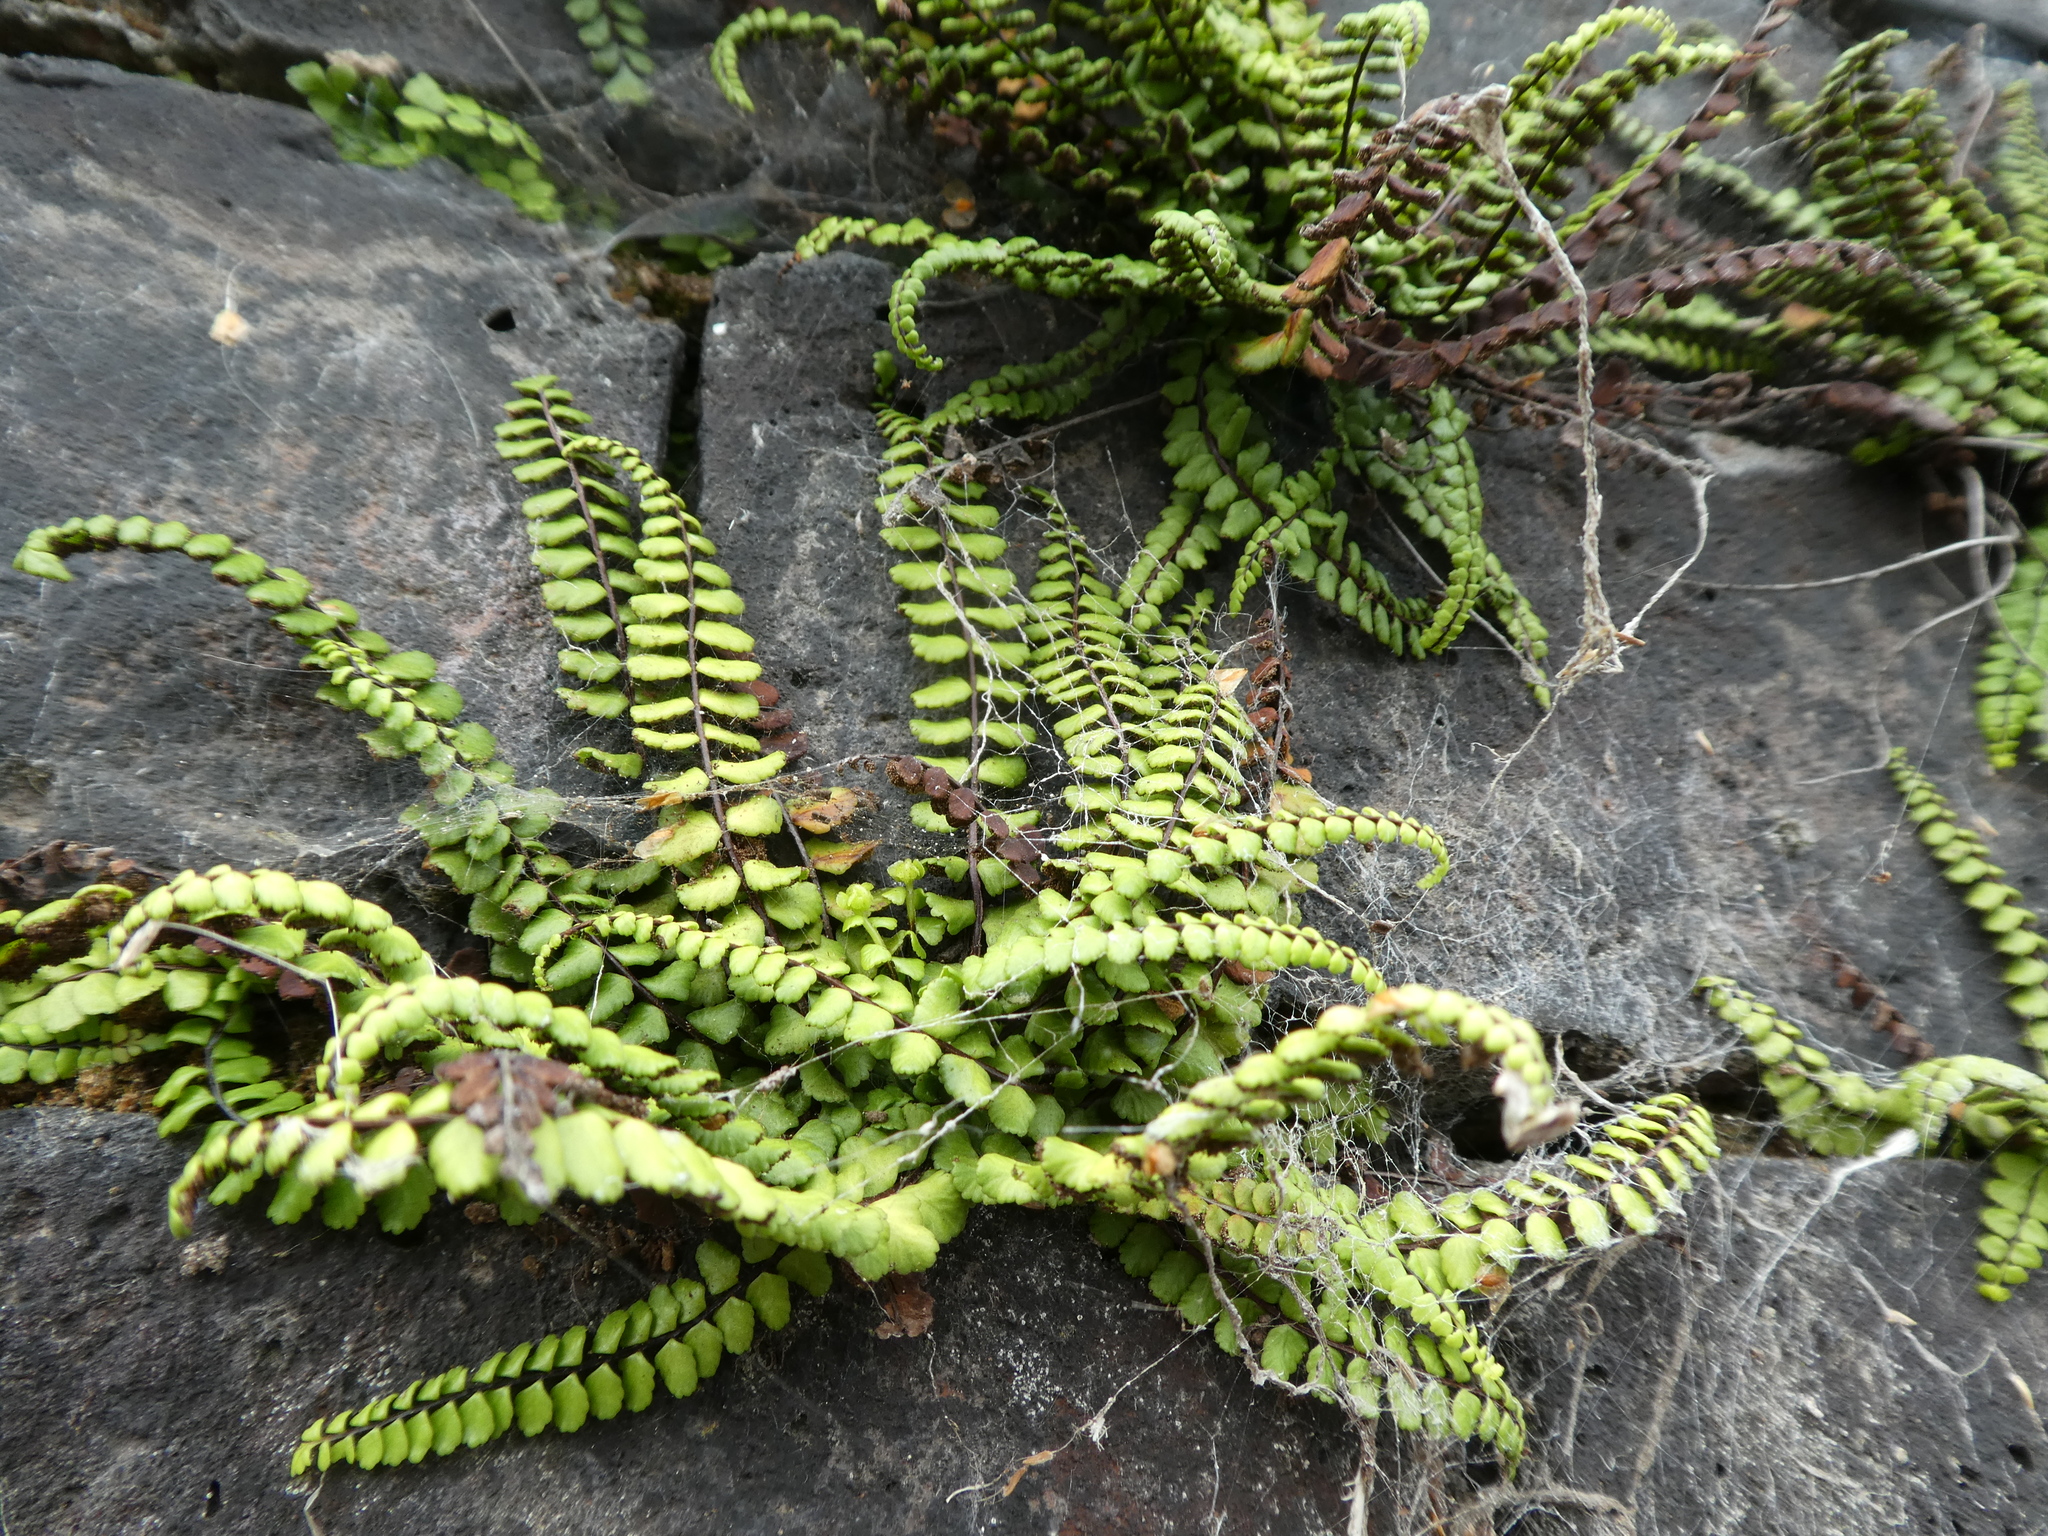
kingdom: Plantae
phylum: Tracheophyta
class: Polypodiopsida
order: Polypodiales
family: Aspleniaceae
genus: Asplenium
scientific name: Asplenium trichomanes
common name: Maidenhair spleenwort
